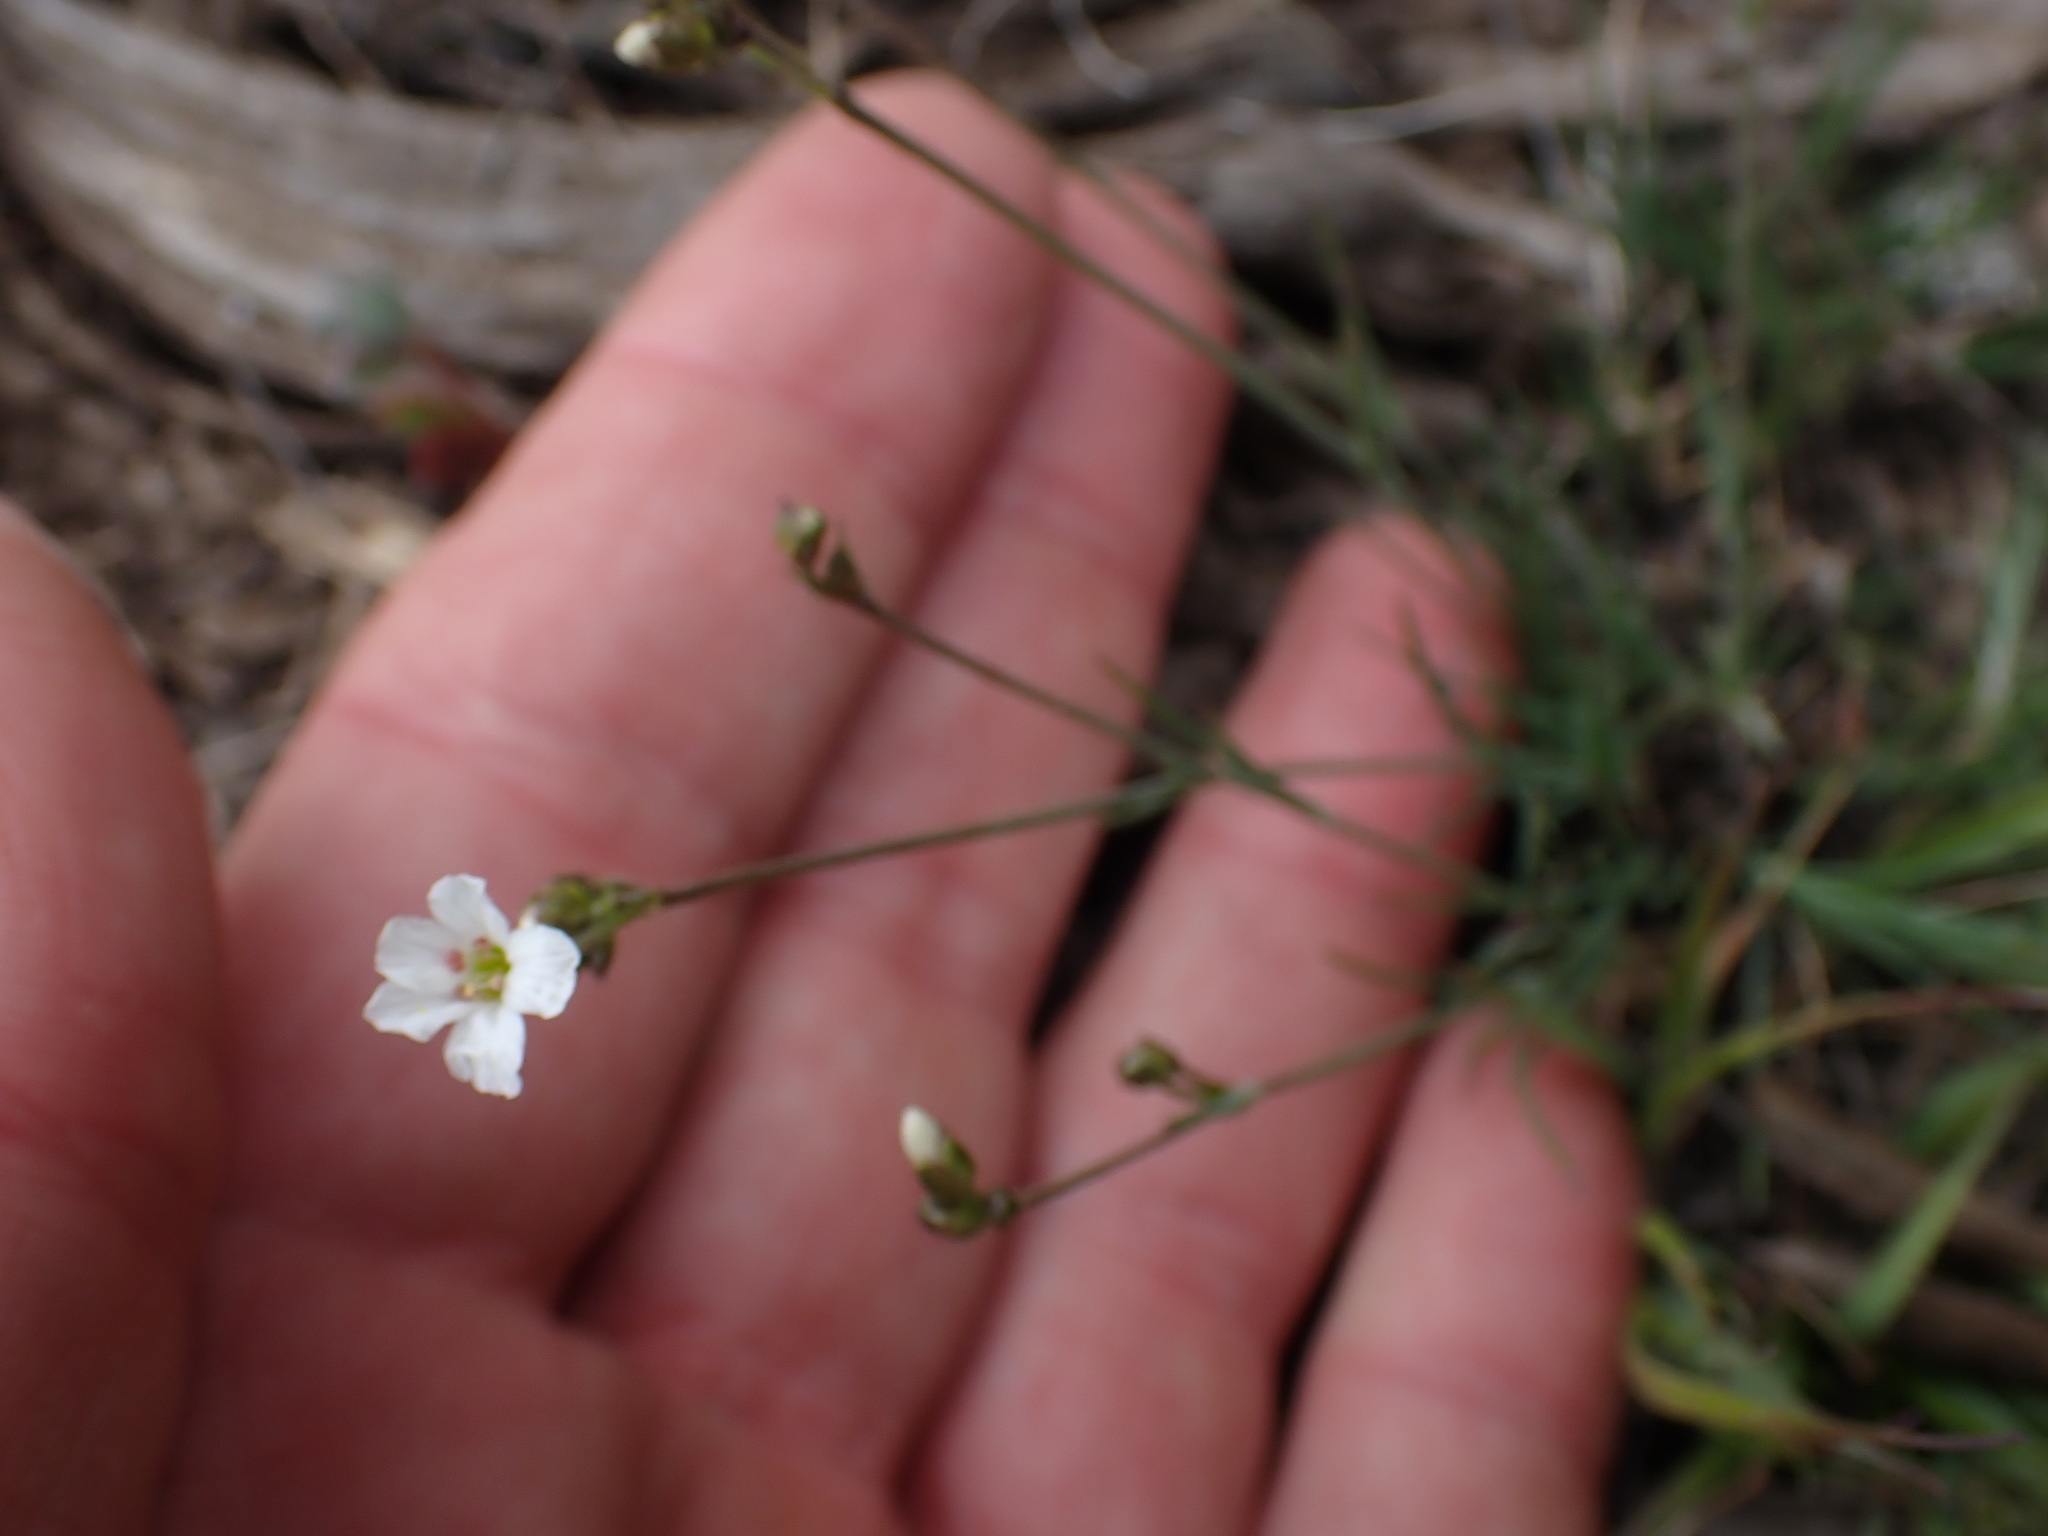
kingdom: Plantae
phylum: Tracheophyta
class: Magnoliopsida
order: Caryophyllales
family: Caryophyllaceae
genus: Eremogone
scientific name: Eremogone capillaris
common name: Slender mountain sandwort
